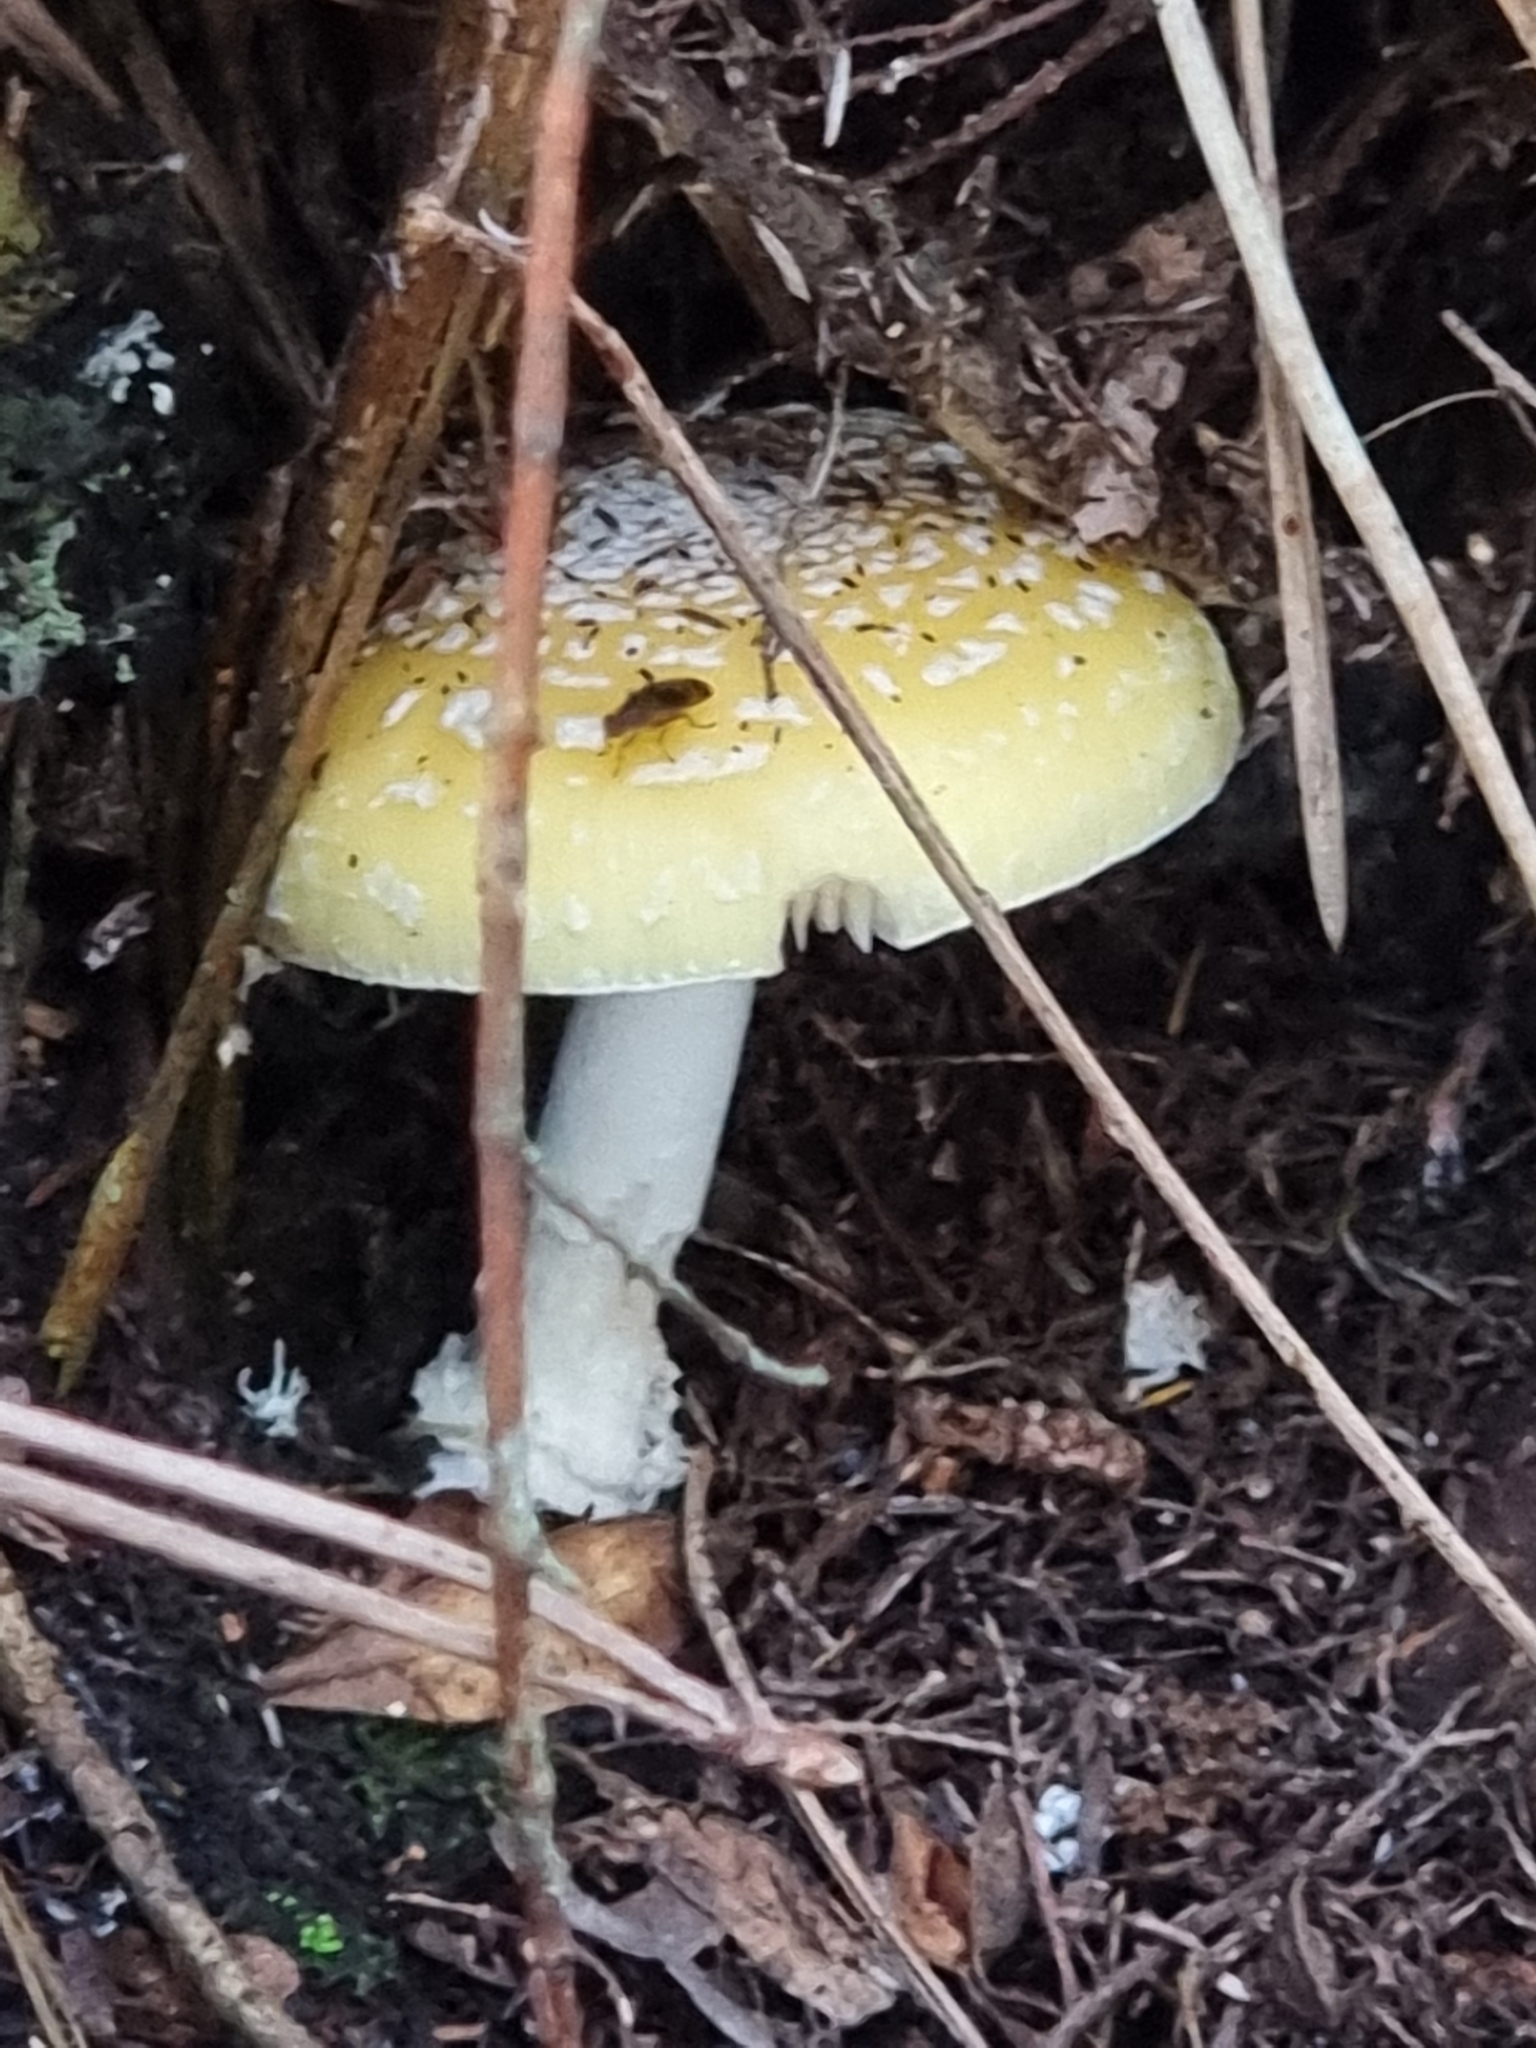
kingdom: Fungi
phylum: Basidiomycota
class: Agaricomycetes
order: Agaricales
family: Amanitaceae
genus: Amanita
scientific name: Amanita gemmata
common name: Jewelled amanita
